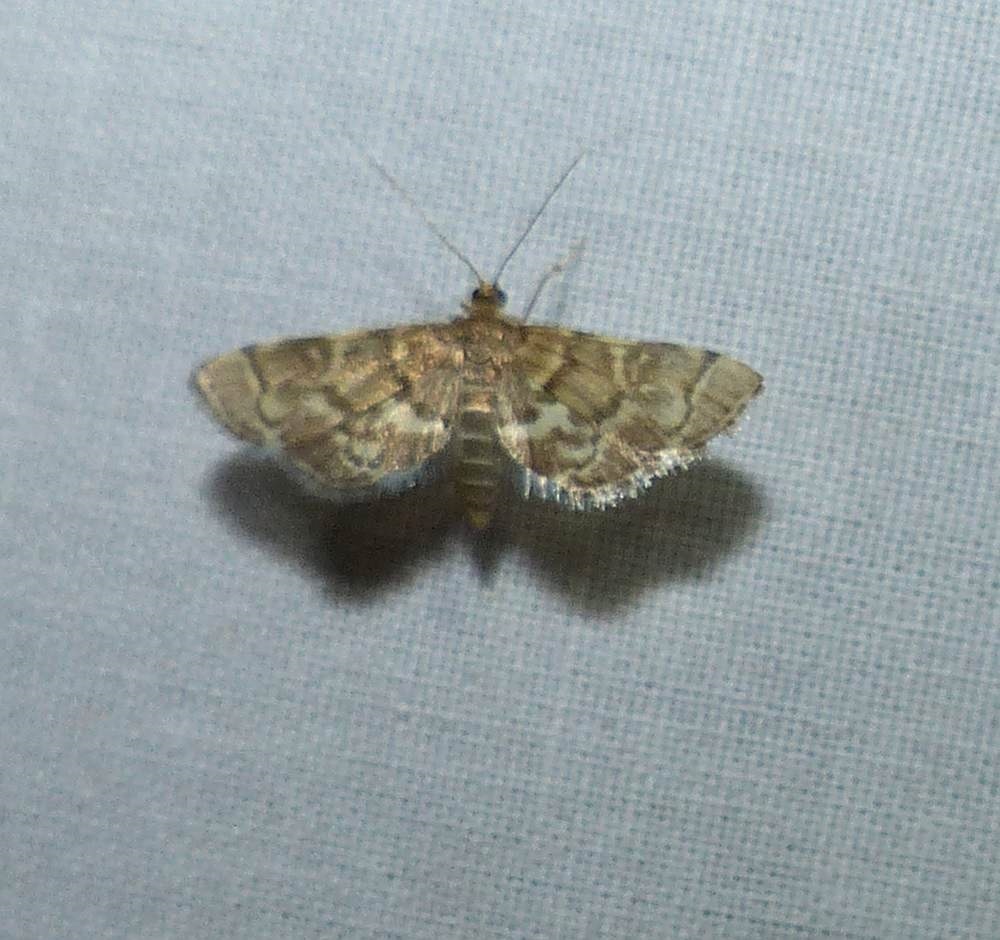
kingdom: Animalia
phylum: Arthropoda
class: Insecta
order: Lepidoptera
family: Crambidae
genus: Anageshna
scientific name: Anageshna primordialis
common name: Yellow-spotted webworm moth
